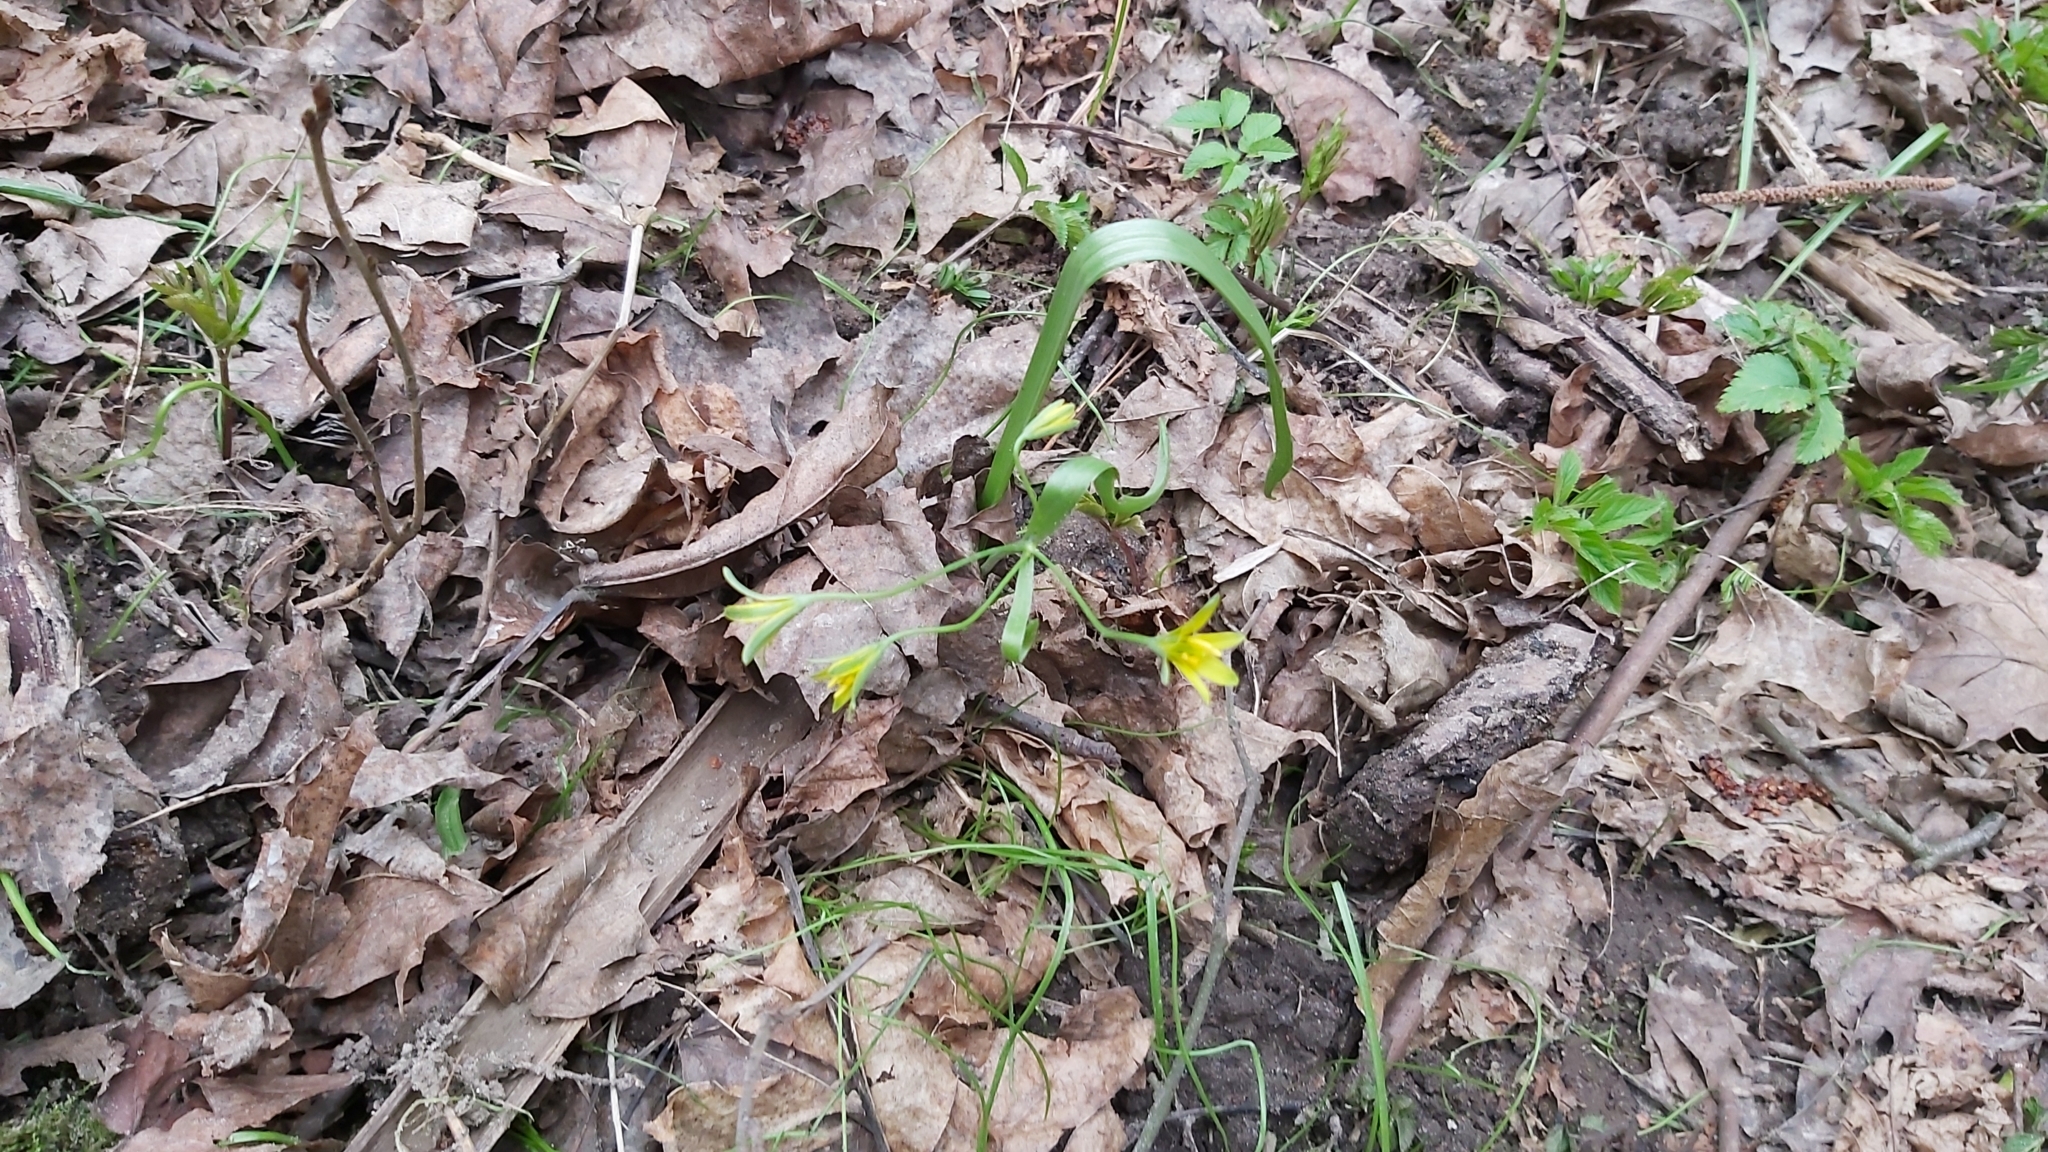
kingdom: Plantae
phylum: Tracheophyta
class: Liliopsida
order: Liliales
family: Liliaceae
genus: Gagea
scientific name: Gagea lutea
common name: Yellow star-of-bethlehem
